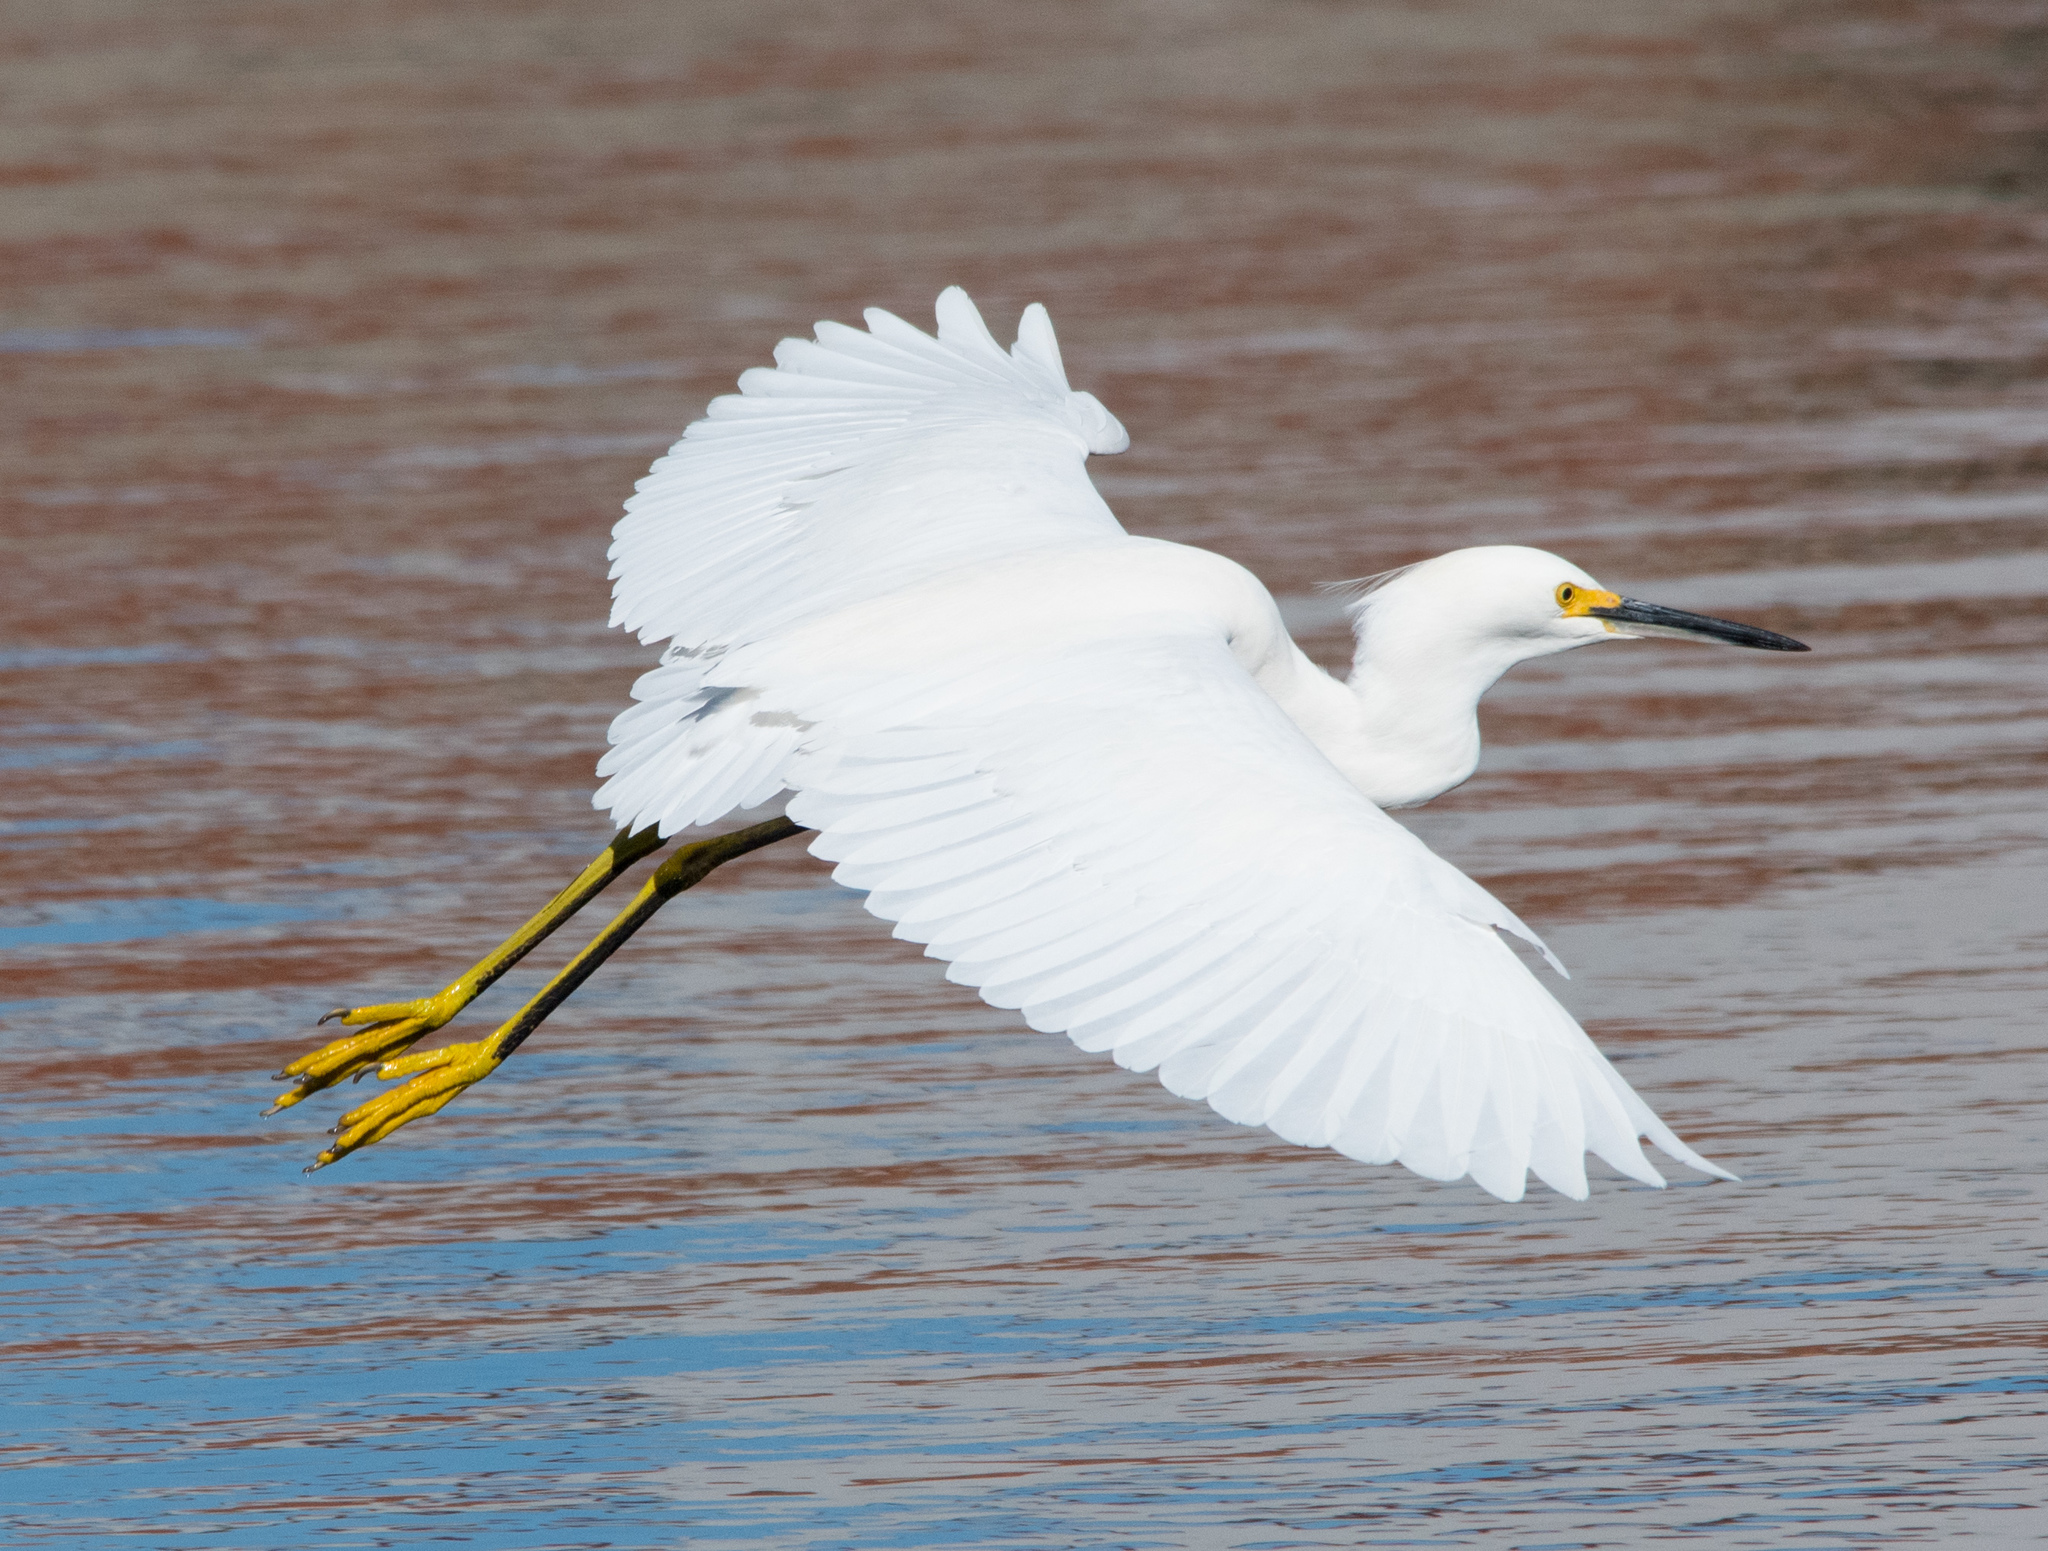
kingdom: Animalia
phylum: Chordata
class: Aves
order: Pelecaniformes
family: Ardeidae
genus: Egretta
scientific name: Egretta thula
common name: Snowy egret
